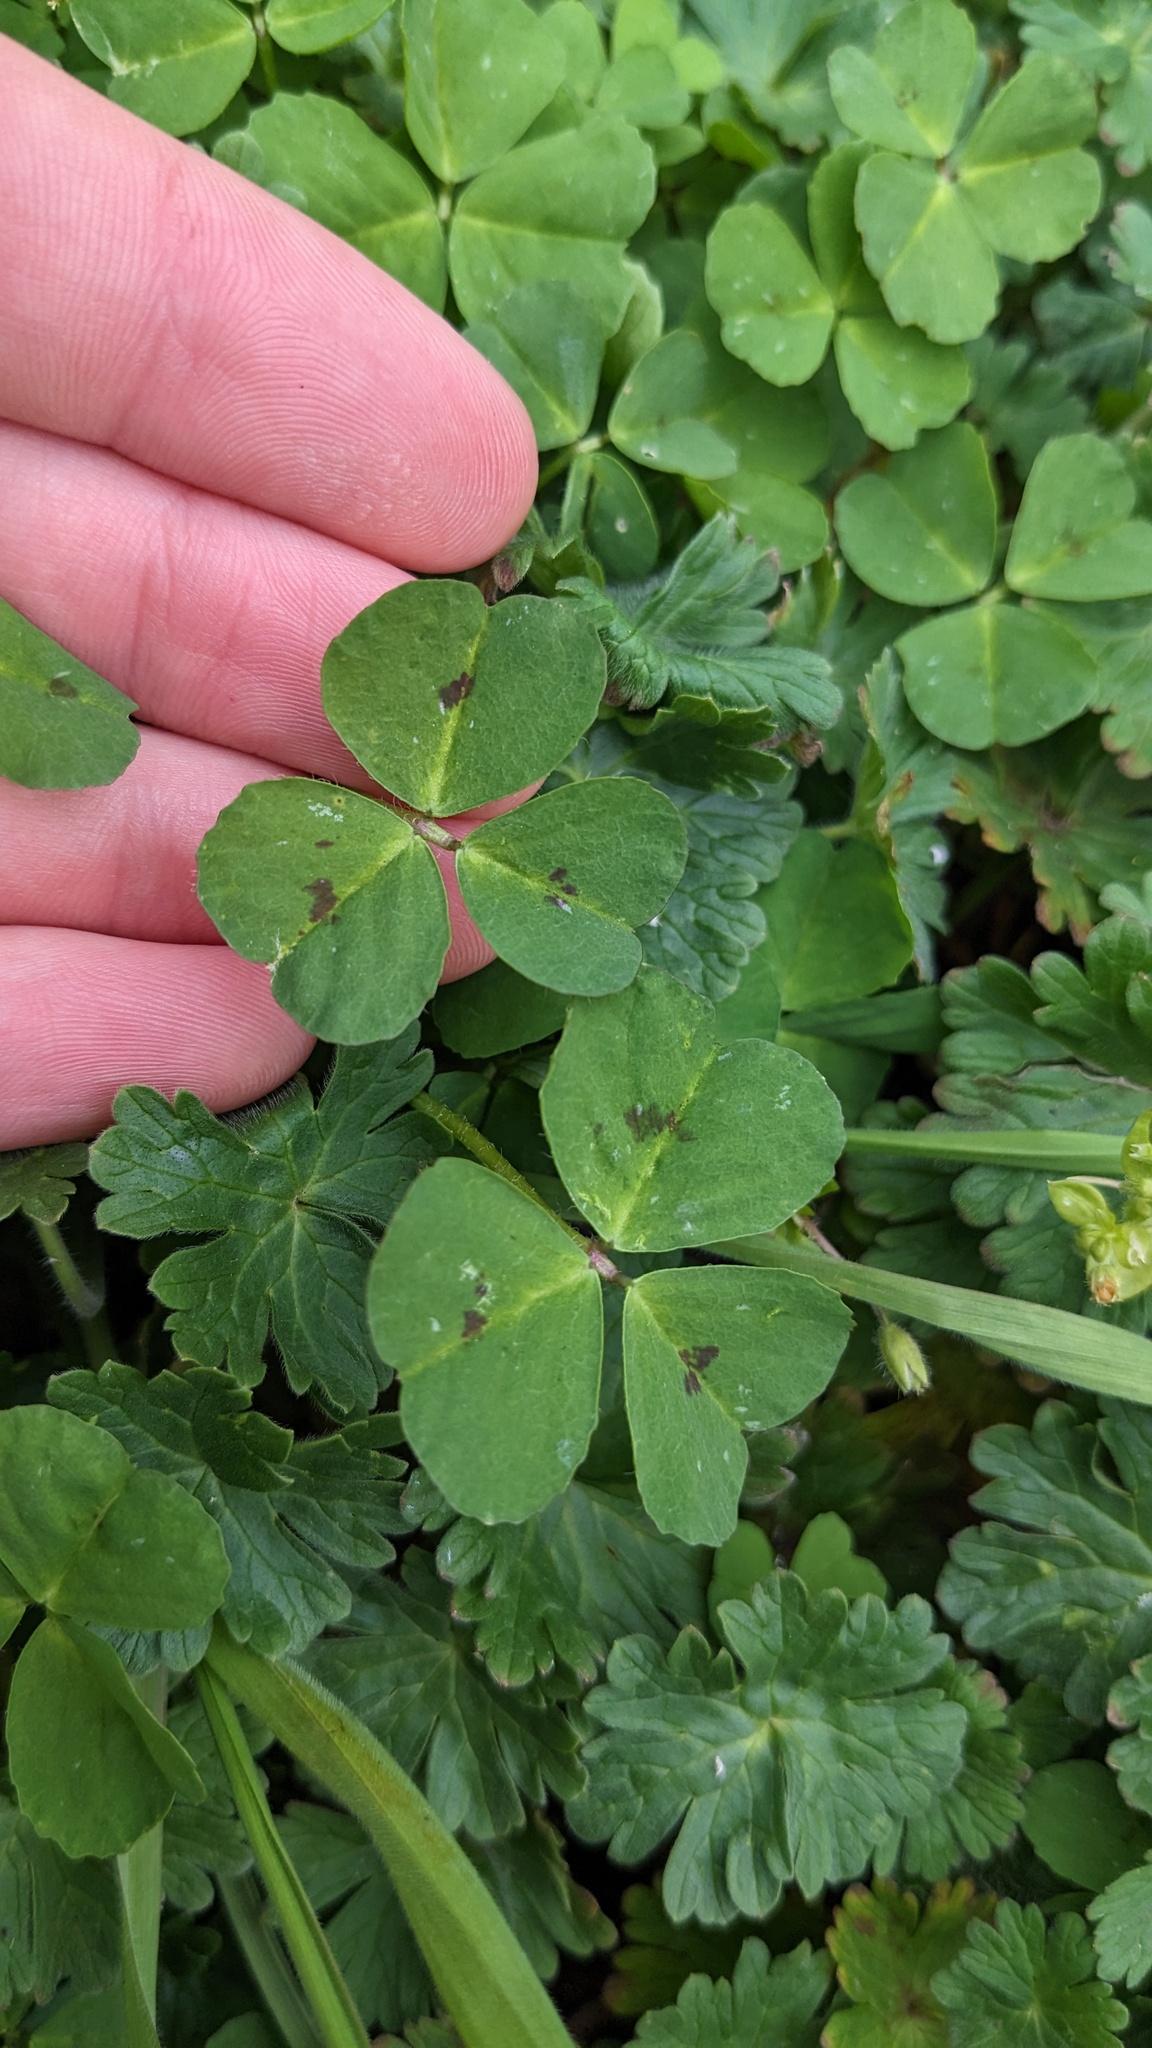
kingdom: Plantae
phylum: Tracheophyta
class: Magnoliopsida
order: Fabales
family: Fabaceae
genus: Medicago
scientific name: Medicago arabica
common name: Spotted medick
